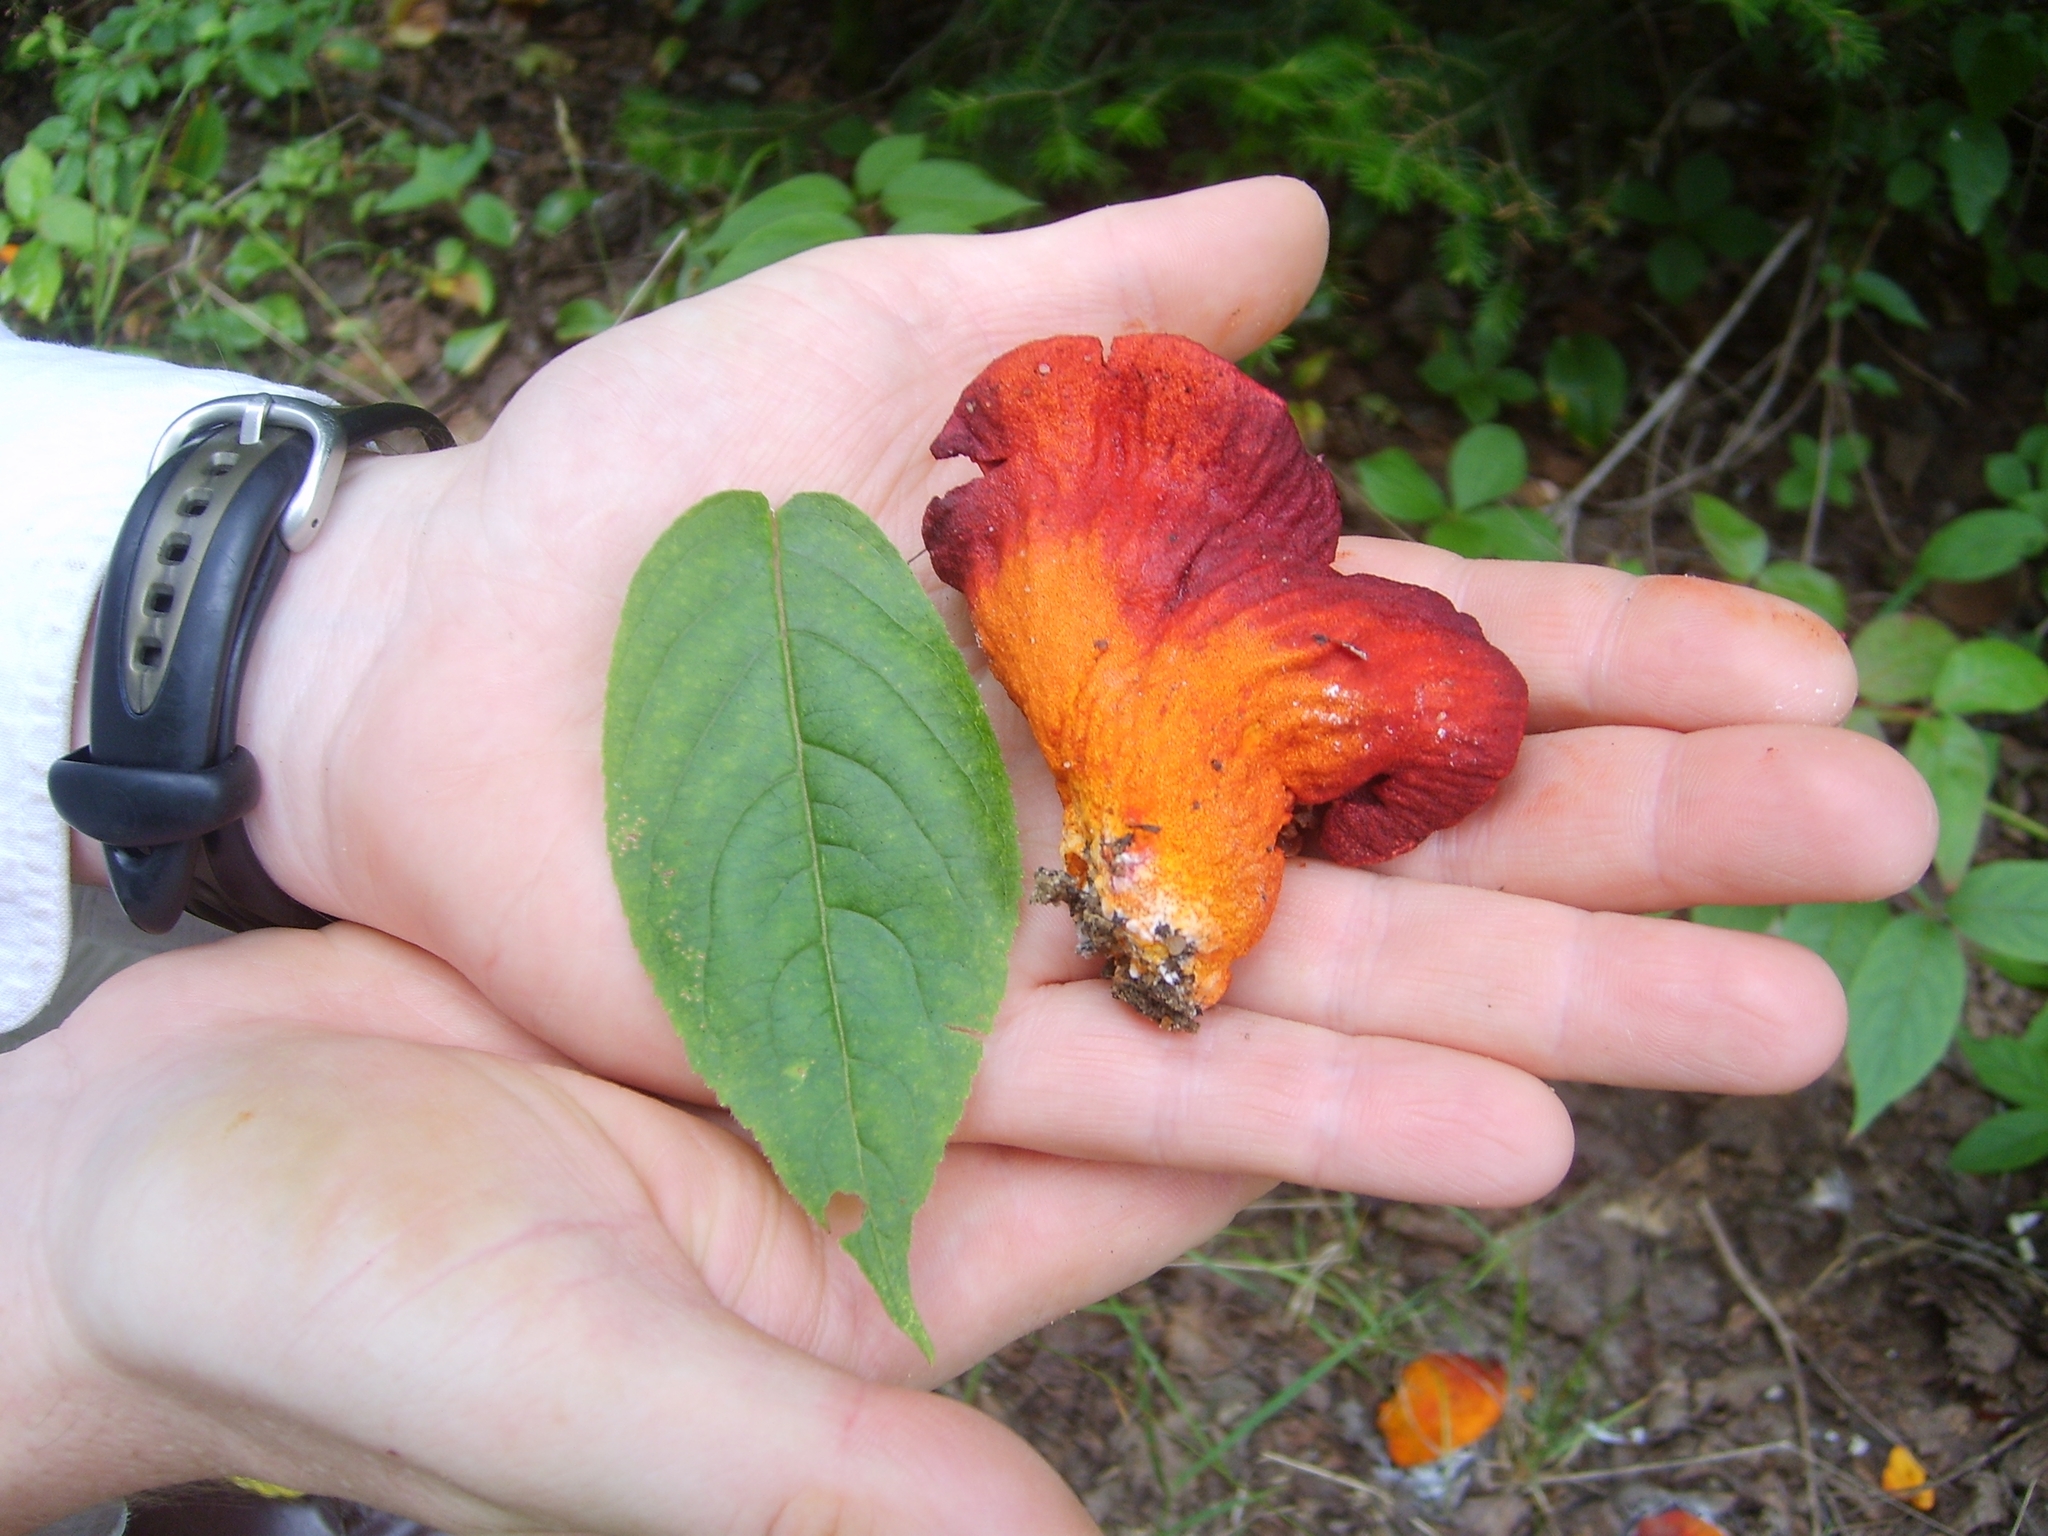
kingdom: Fungi
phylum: Ascomycota
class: Sordariomycetes
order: Hypocreales
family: Hypocreaceae
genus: Hypomyces
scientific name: Hypomyces lactifluorum
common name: Lobster mushroom
